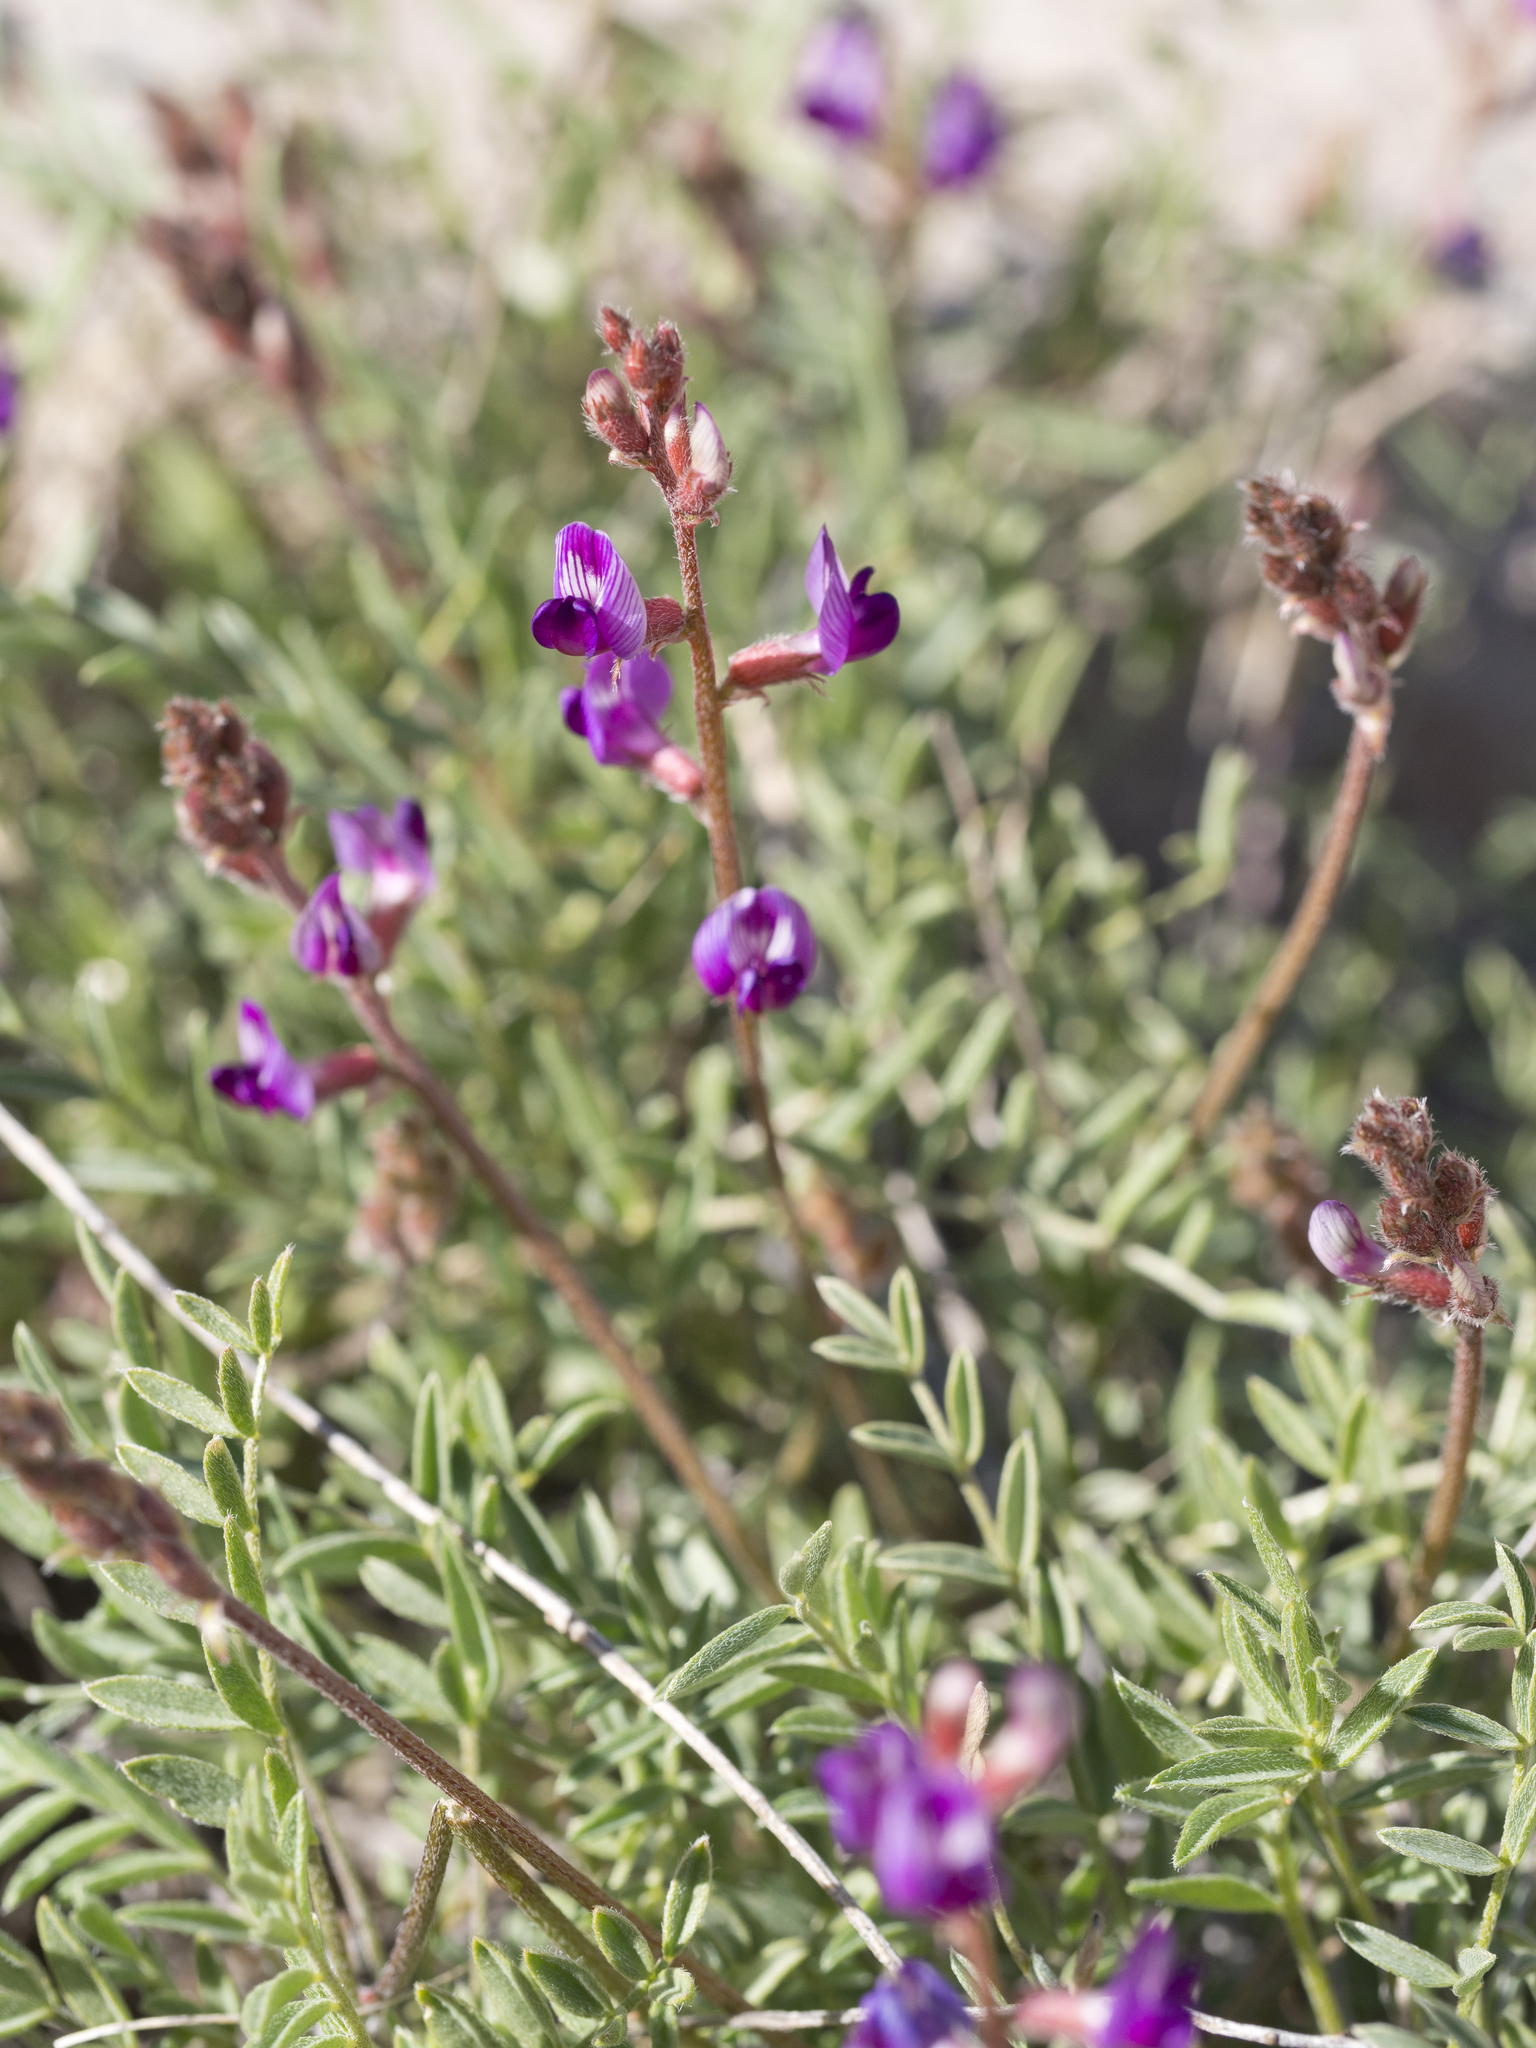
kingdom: Plantae
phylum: Tracheophyta
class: Magnoliopsida
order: Fabales
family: Fabaceae
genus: Astragalus
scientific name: Astragalus desperatus
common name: Rimrock milk-vetch
